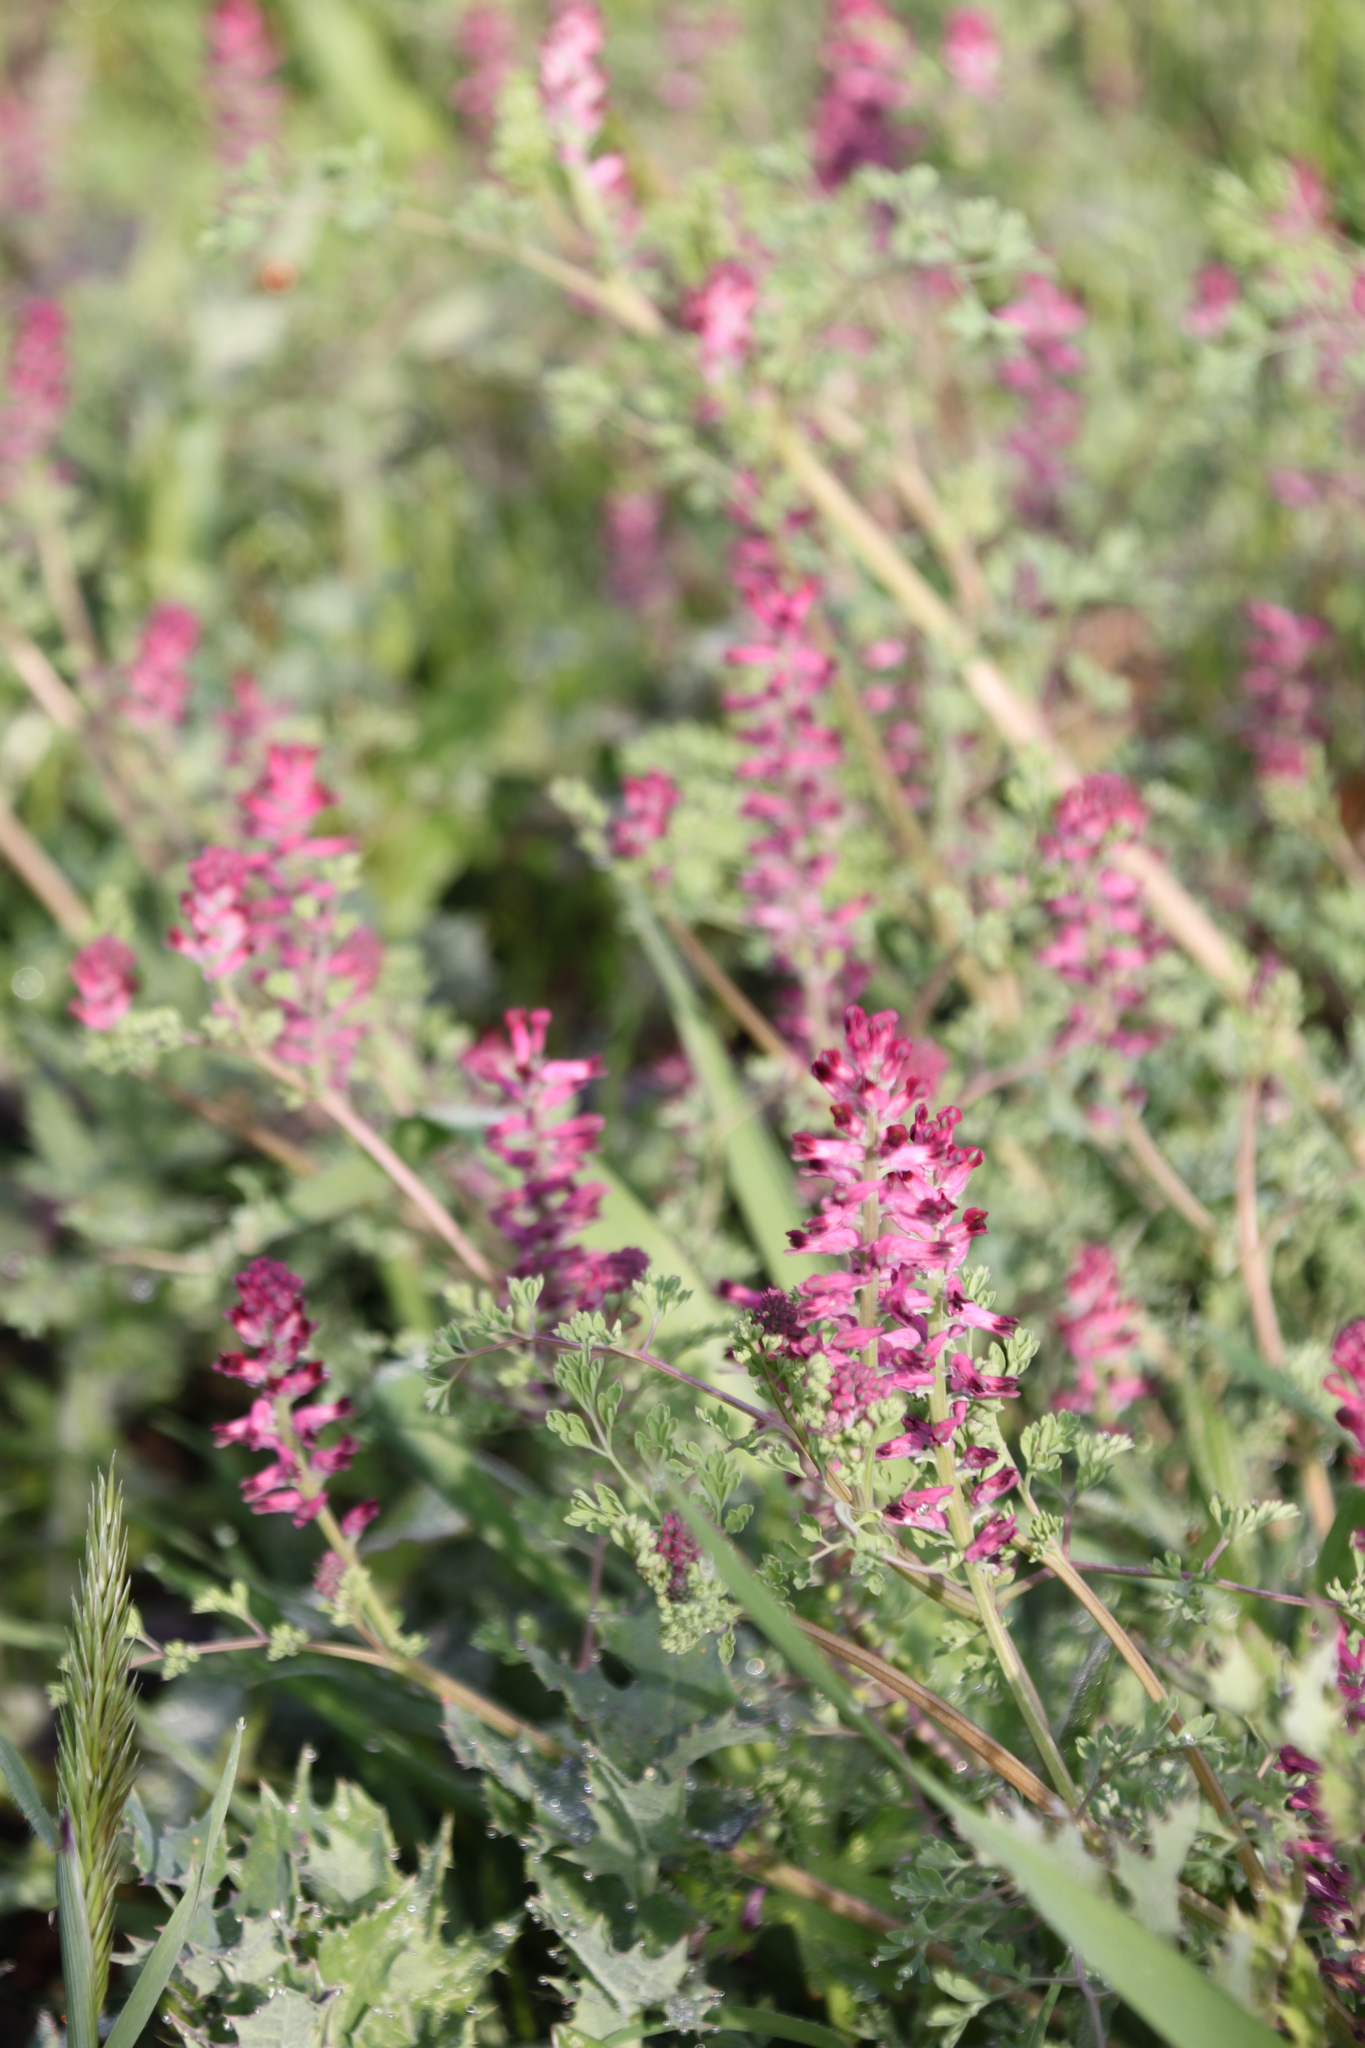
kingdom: Plantae
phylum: Tracheophyta
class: Magnoliopsida
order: Ranunculales
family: Papaveraceae
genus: Fumaria
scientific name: Fumaria officinalis
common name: Common fumitory
